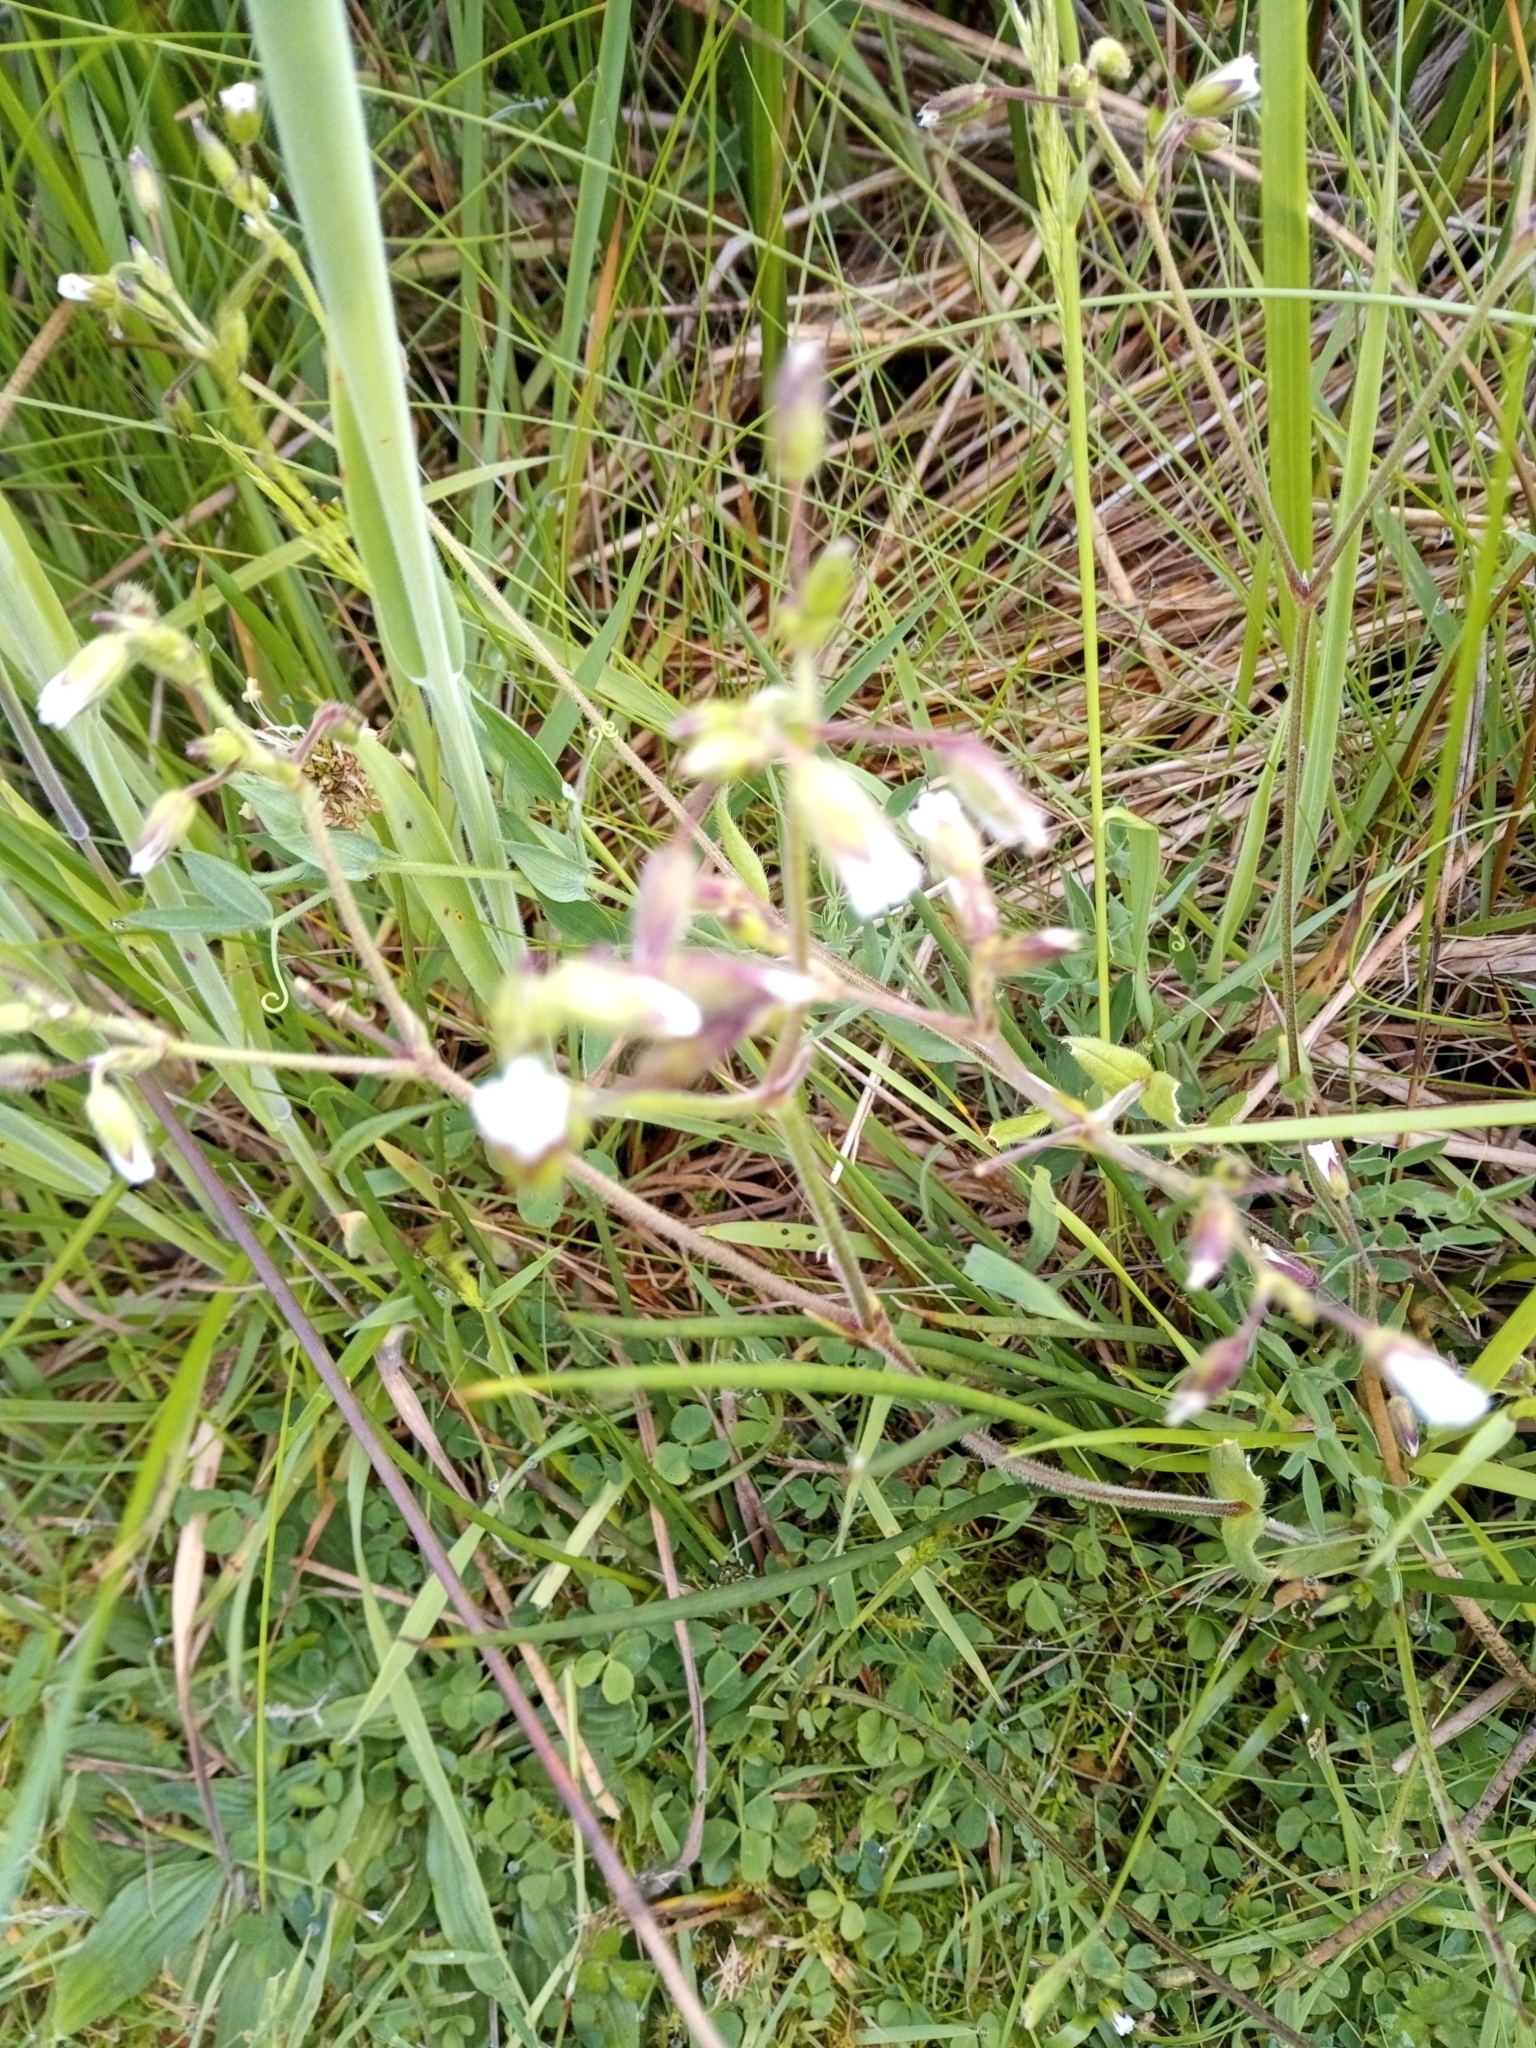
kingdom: Plantae
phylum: Tracheophyta
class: Magnoliopsida
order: Caryophyllales
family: Caryophyllaceae
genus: Cerastium
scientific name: Cerastium fontanum
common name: Common mouse-ear
